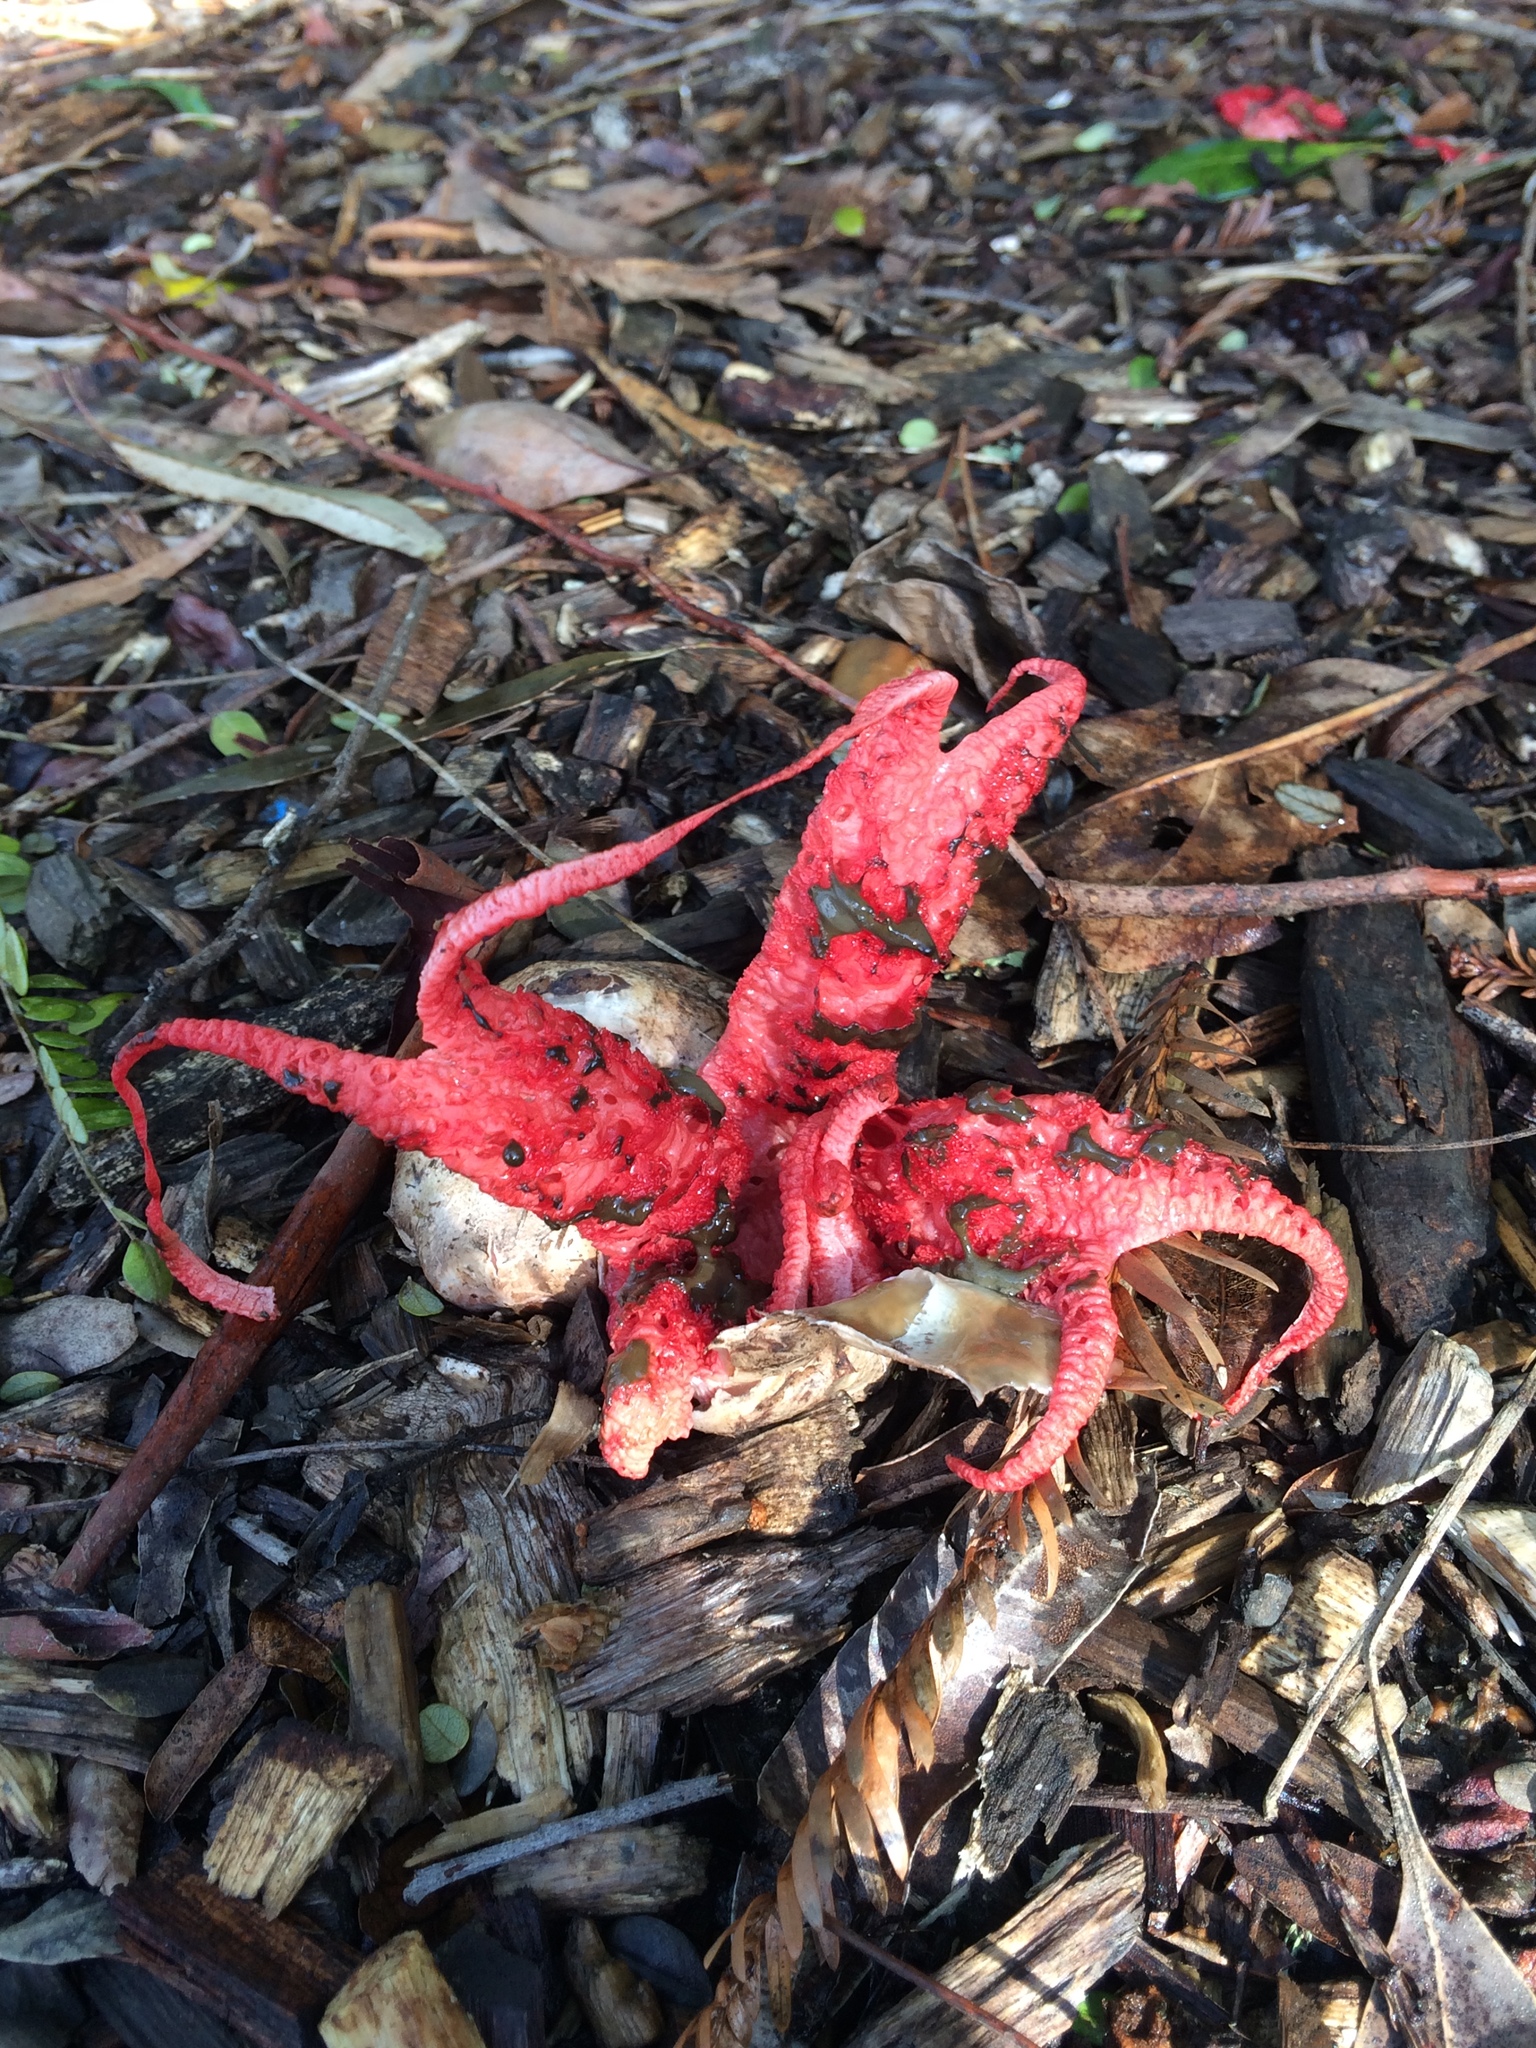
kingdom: Fungi
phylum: Basidiomycota
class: Agaricomycetes
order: Phallales
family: Phallaceae
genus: Clathrus
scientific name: Clathrus archeri
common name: Devil's fingers
